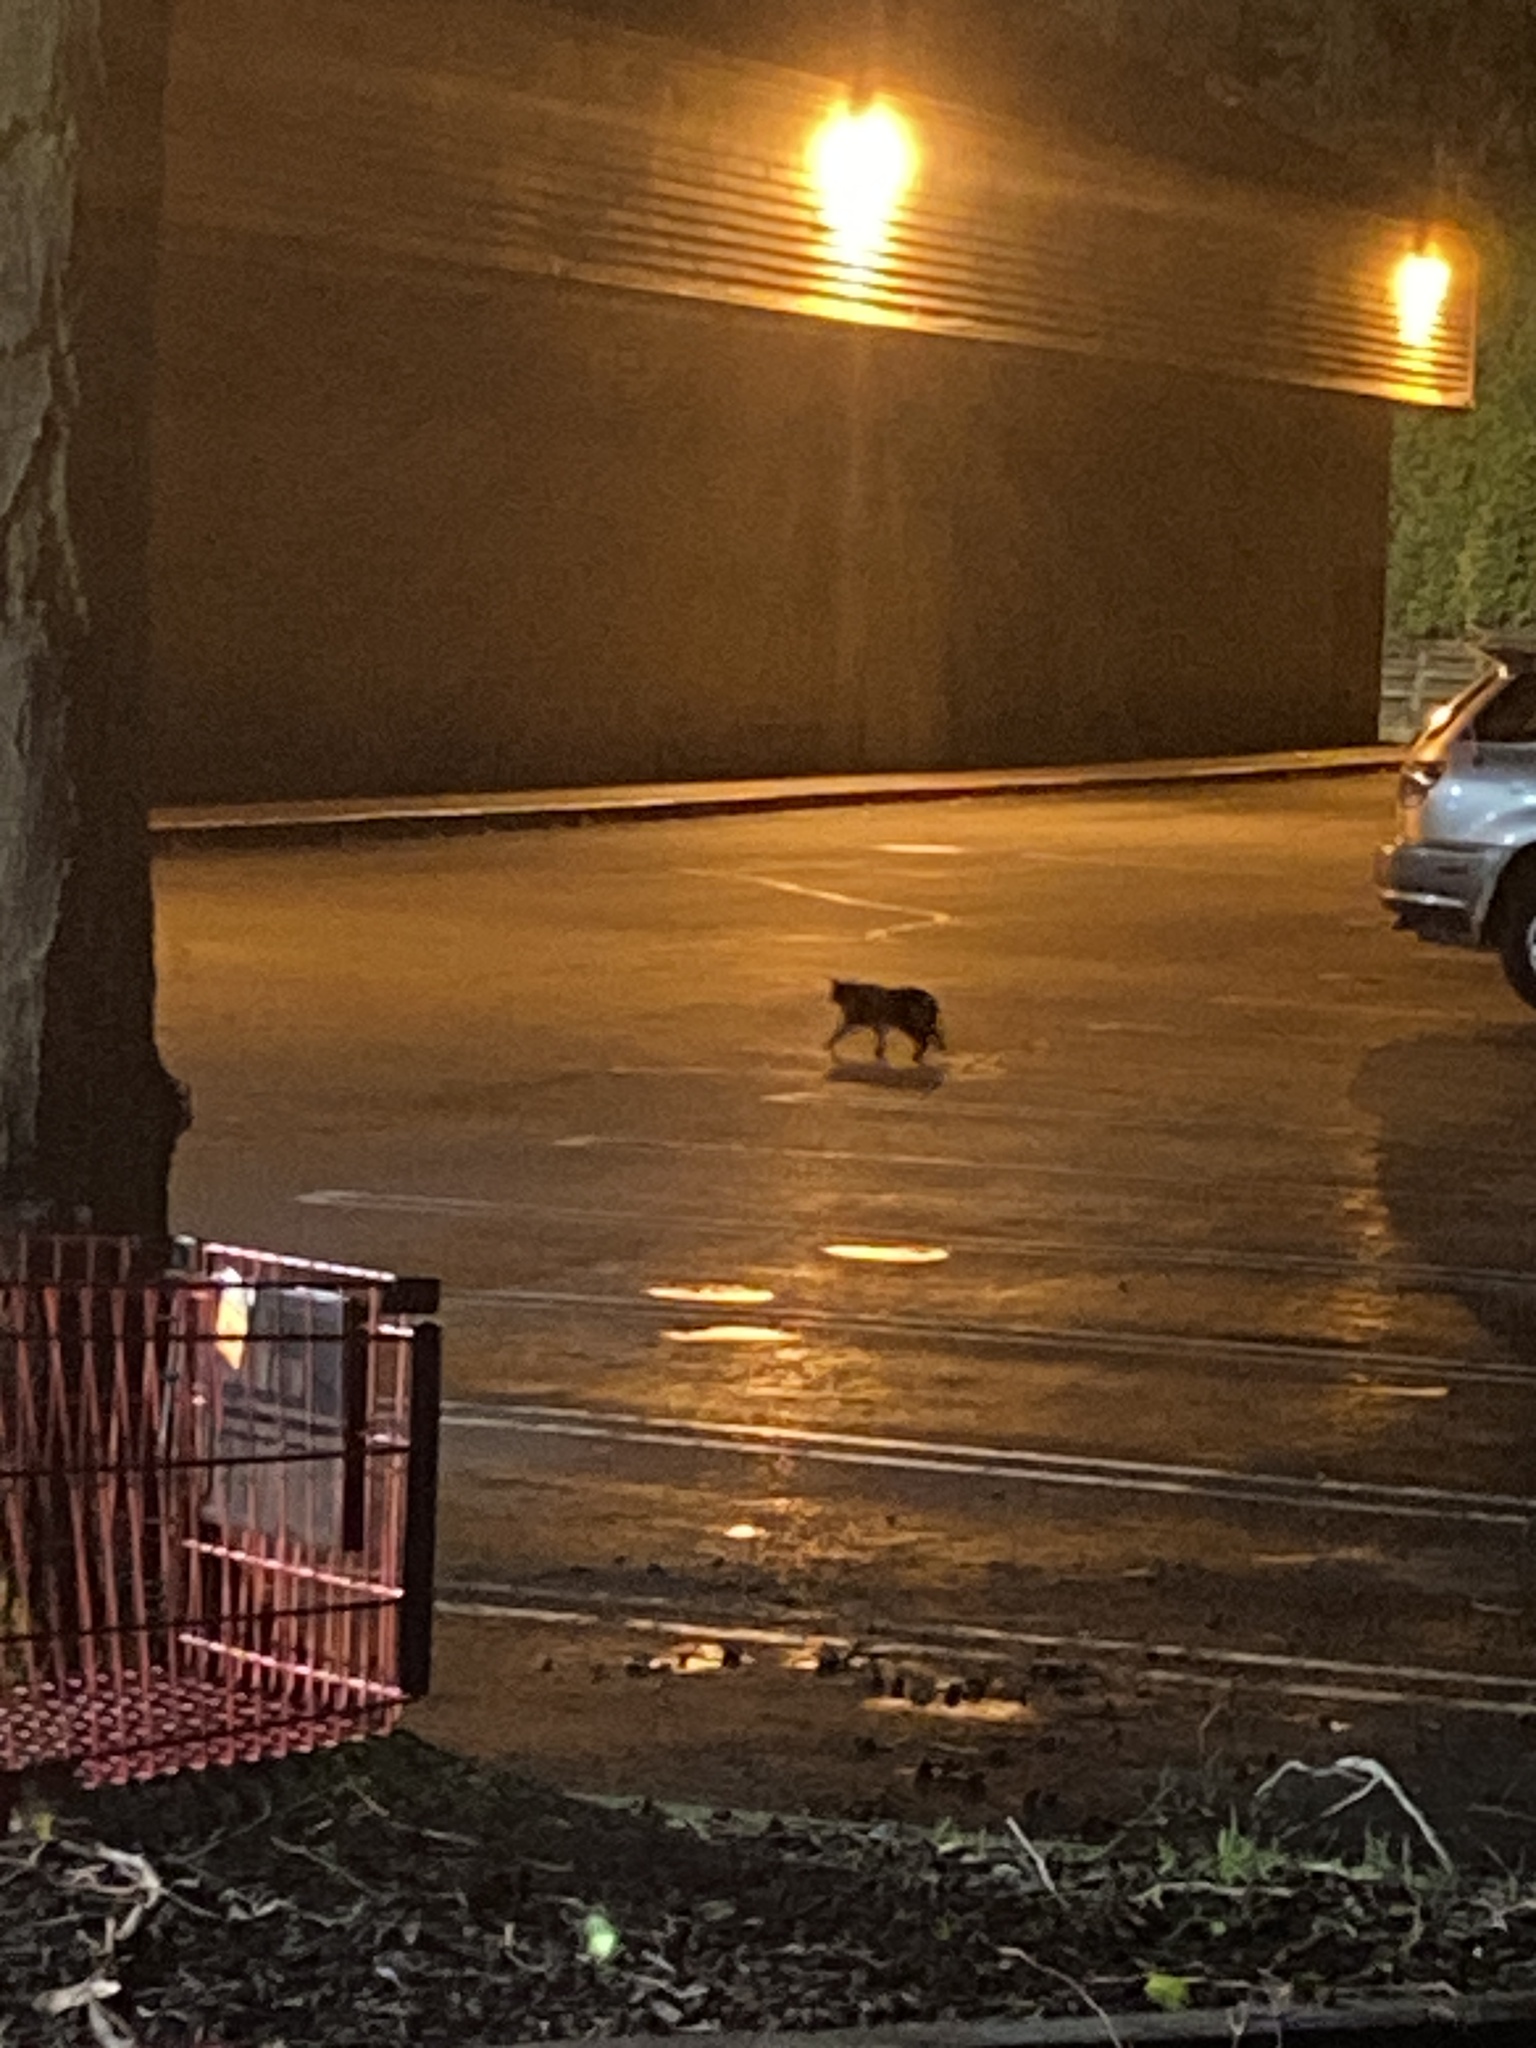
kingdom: Animalia
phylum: Chordata
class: Mammalia
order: Carnivora
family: Felidae
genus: Felis
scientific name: Felis catus
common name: Domestic cat
